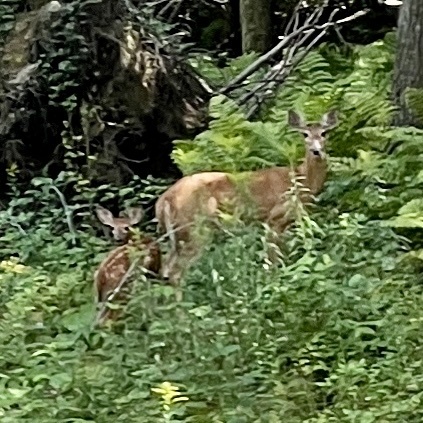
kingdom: Animalia
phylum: Chordata
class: Mammalia
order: Artiodactyla
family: Cervidae
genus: Odocoileus
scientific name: Odocoileus virginianus
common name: White-tailed deer
